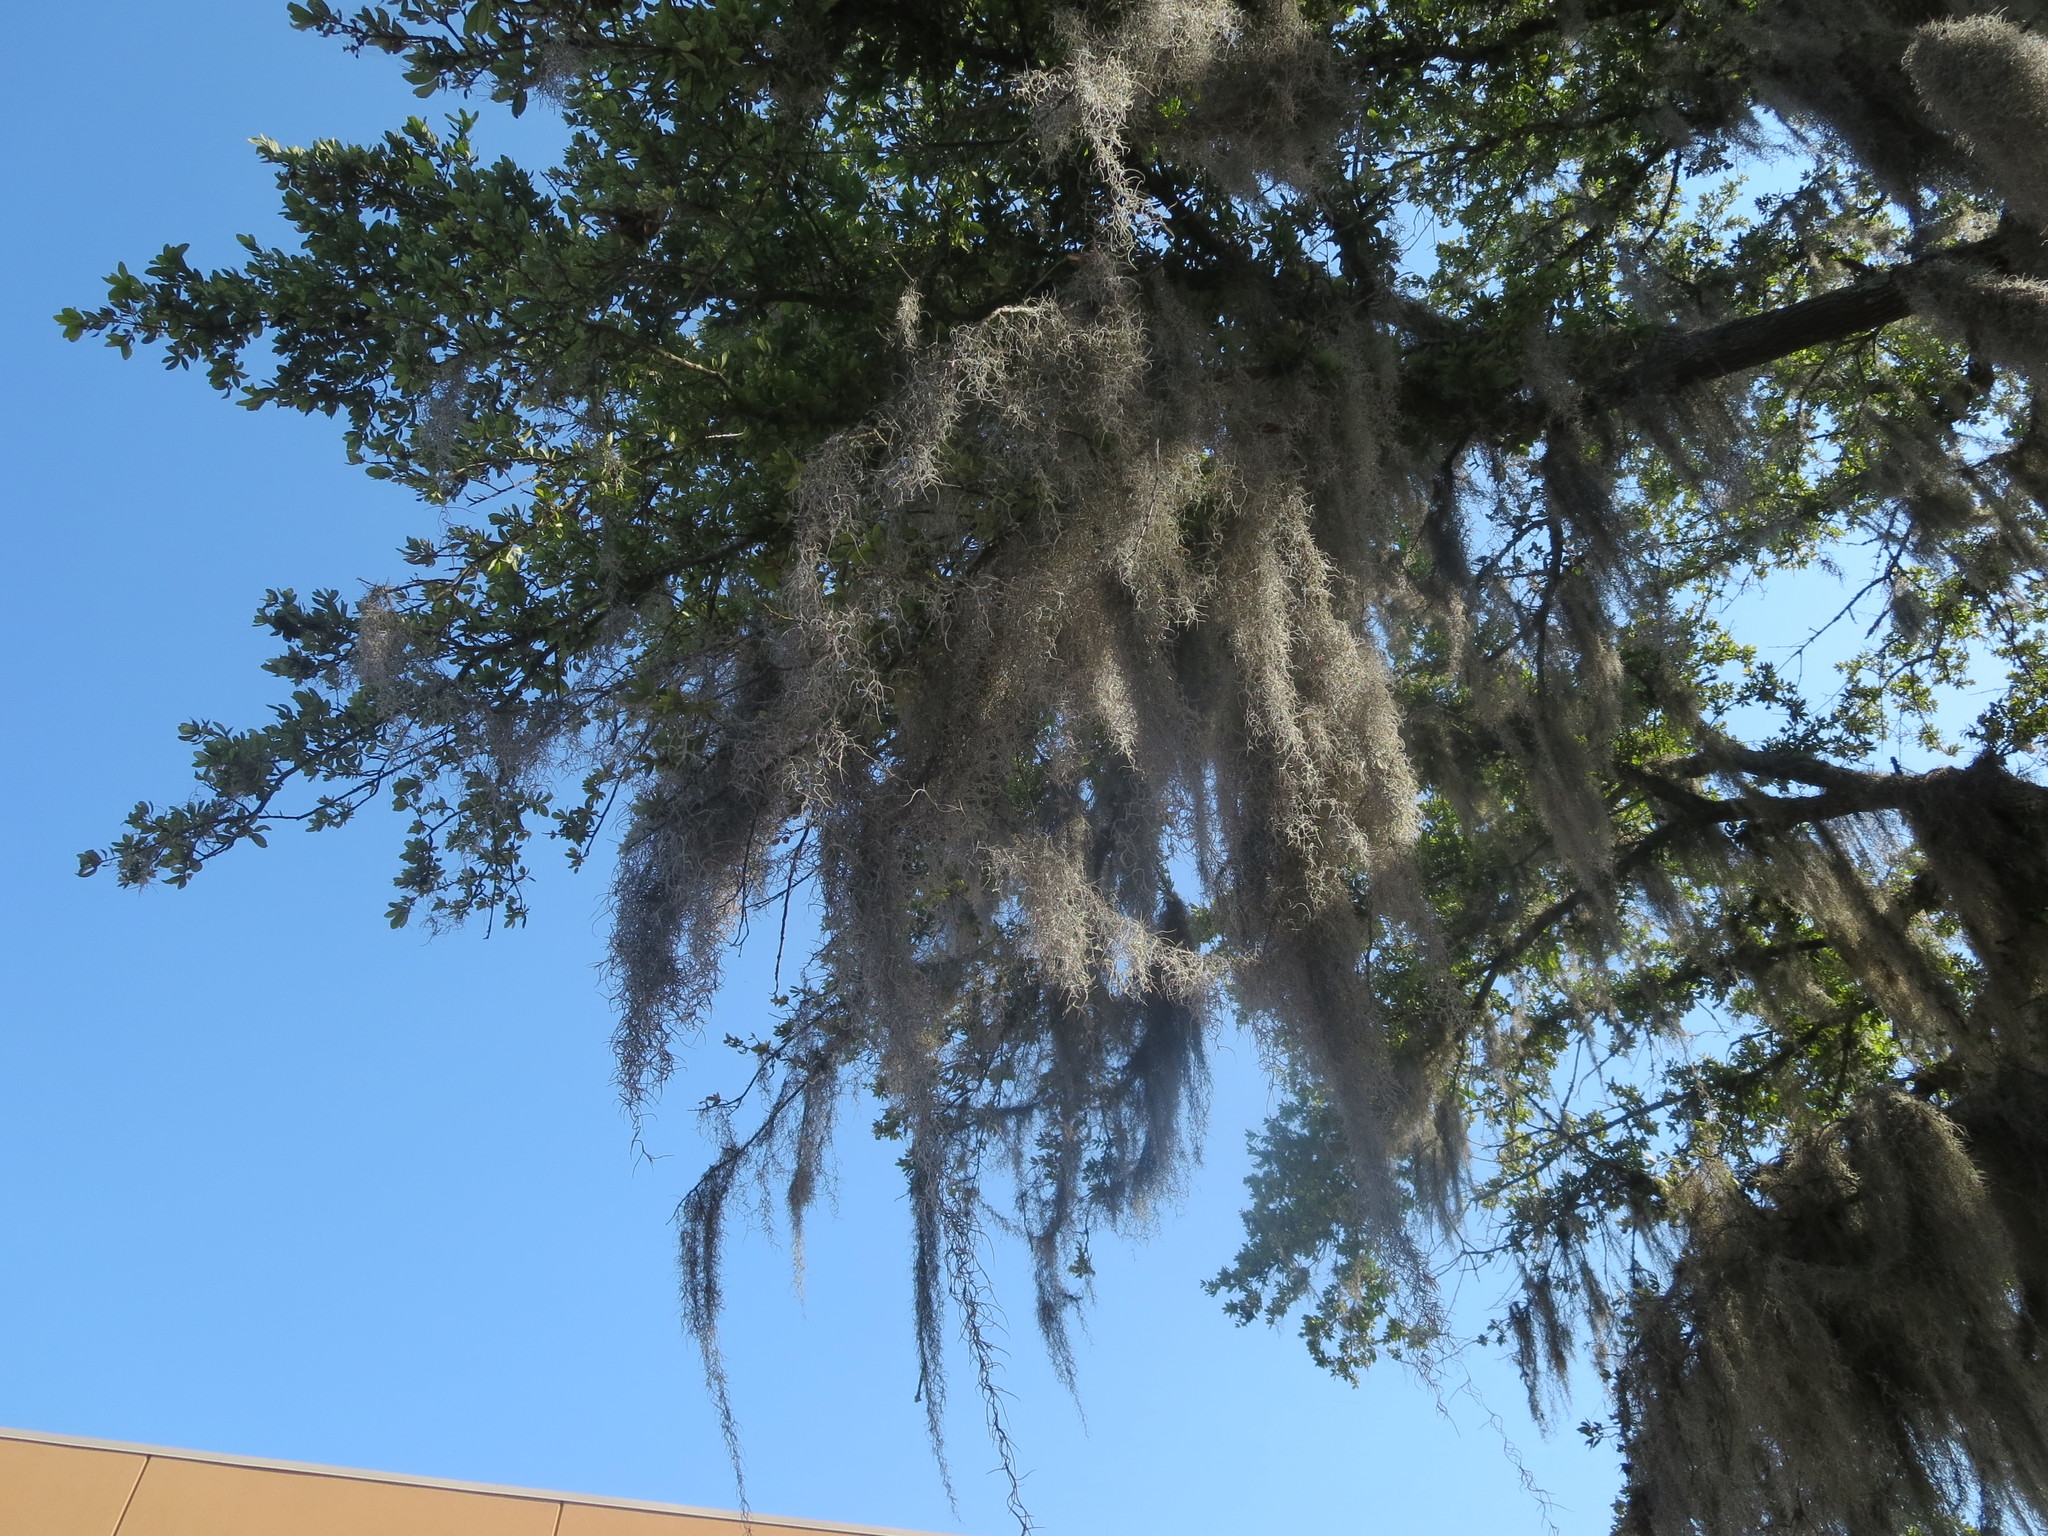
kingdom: Plantae
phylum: Tracheophyta
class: Liliopsida
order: Poales
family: Bromeliaceae
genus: Tillandsia
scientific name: Tillandsia usneoides
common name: Spanish moss
